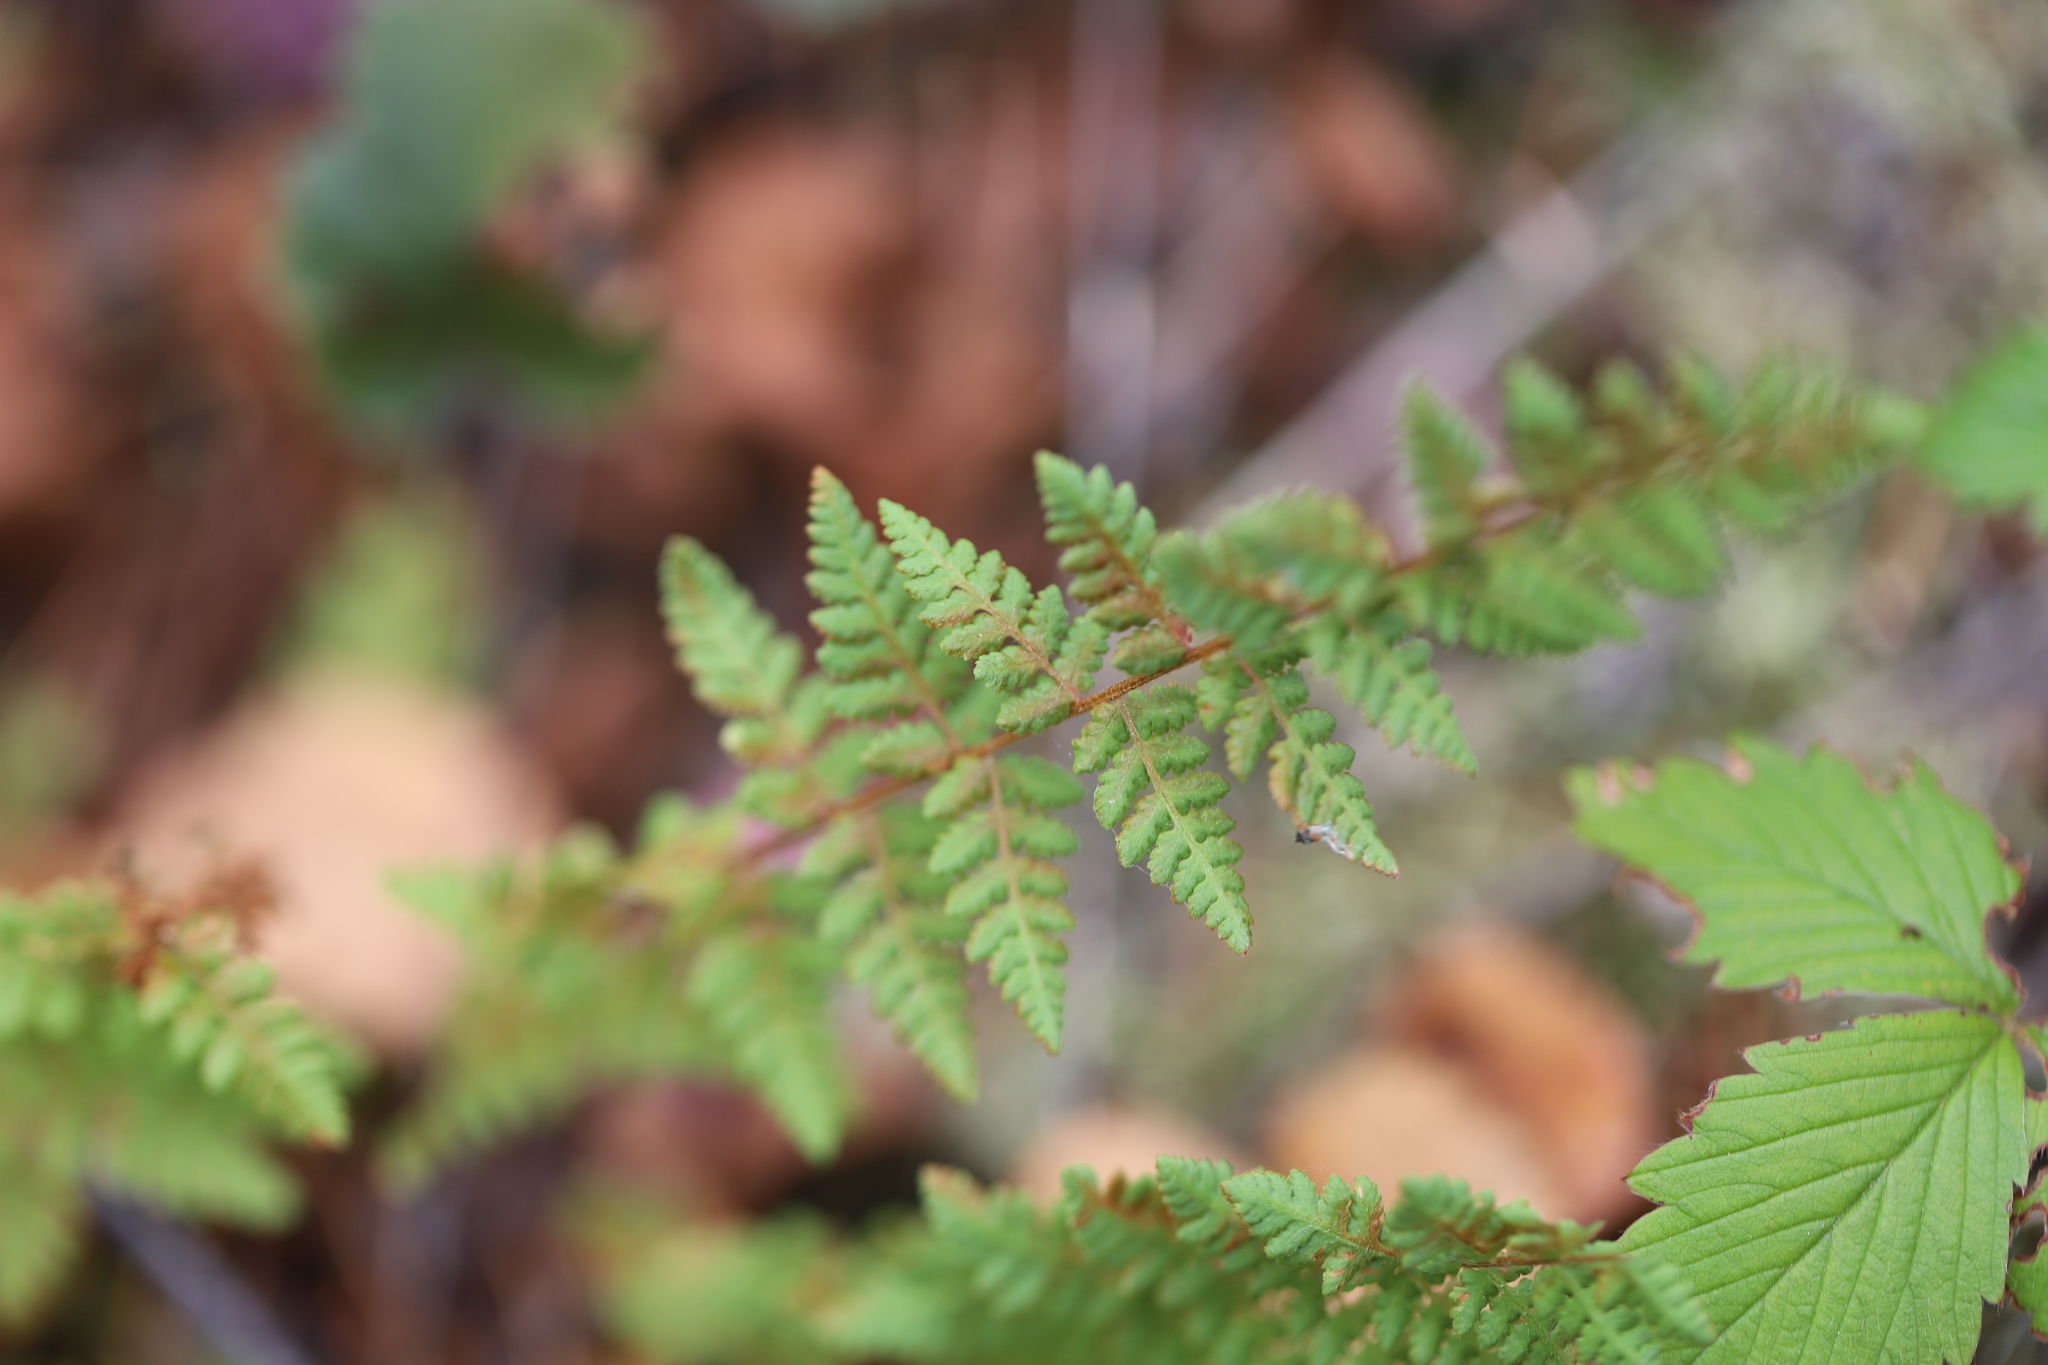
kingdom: Plantae
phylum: Tracheophyta
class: Polypodiopsida
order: Polypodiales
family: Woodsiaceae
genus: Physematium
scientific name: Physematium scopulinum
